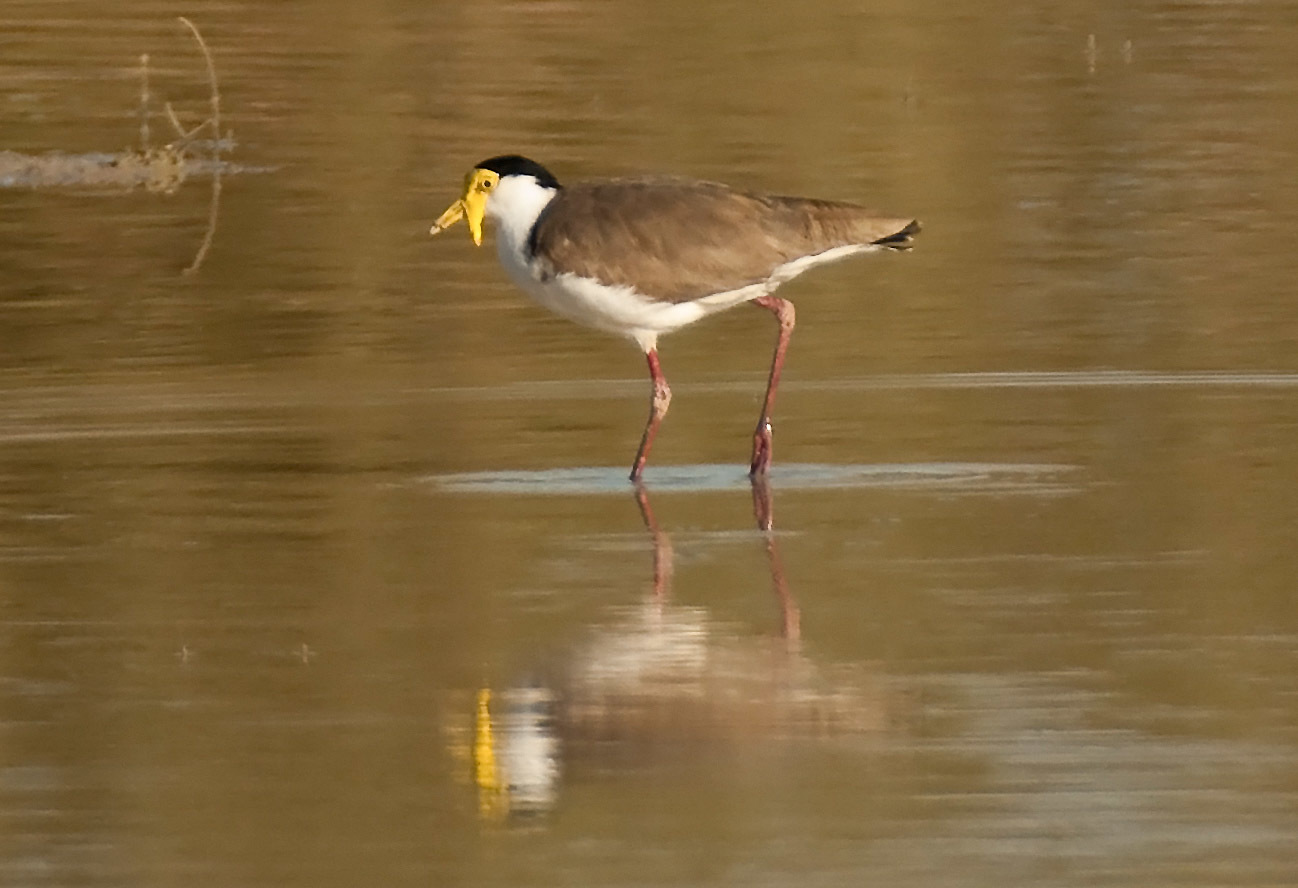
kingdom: Animalia
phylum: Chordata
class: Aves
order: Charadriiformes
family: Charadriidae
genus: Vanellus
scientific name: Vanellus miles
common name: Masked lapwing
